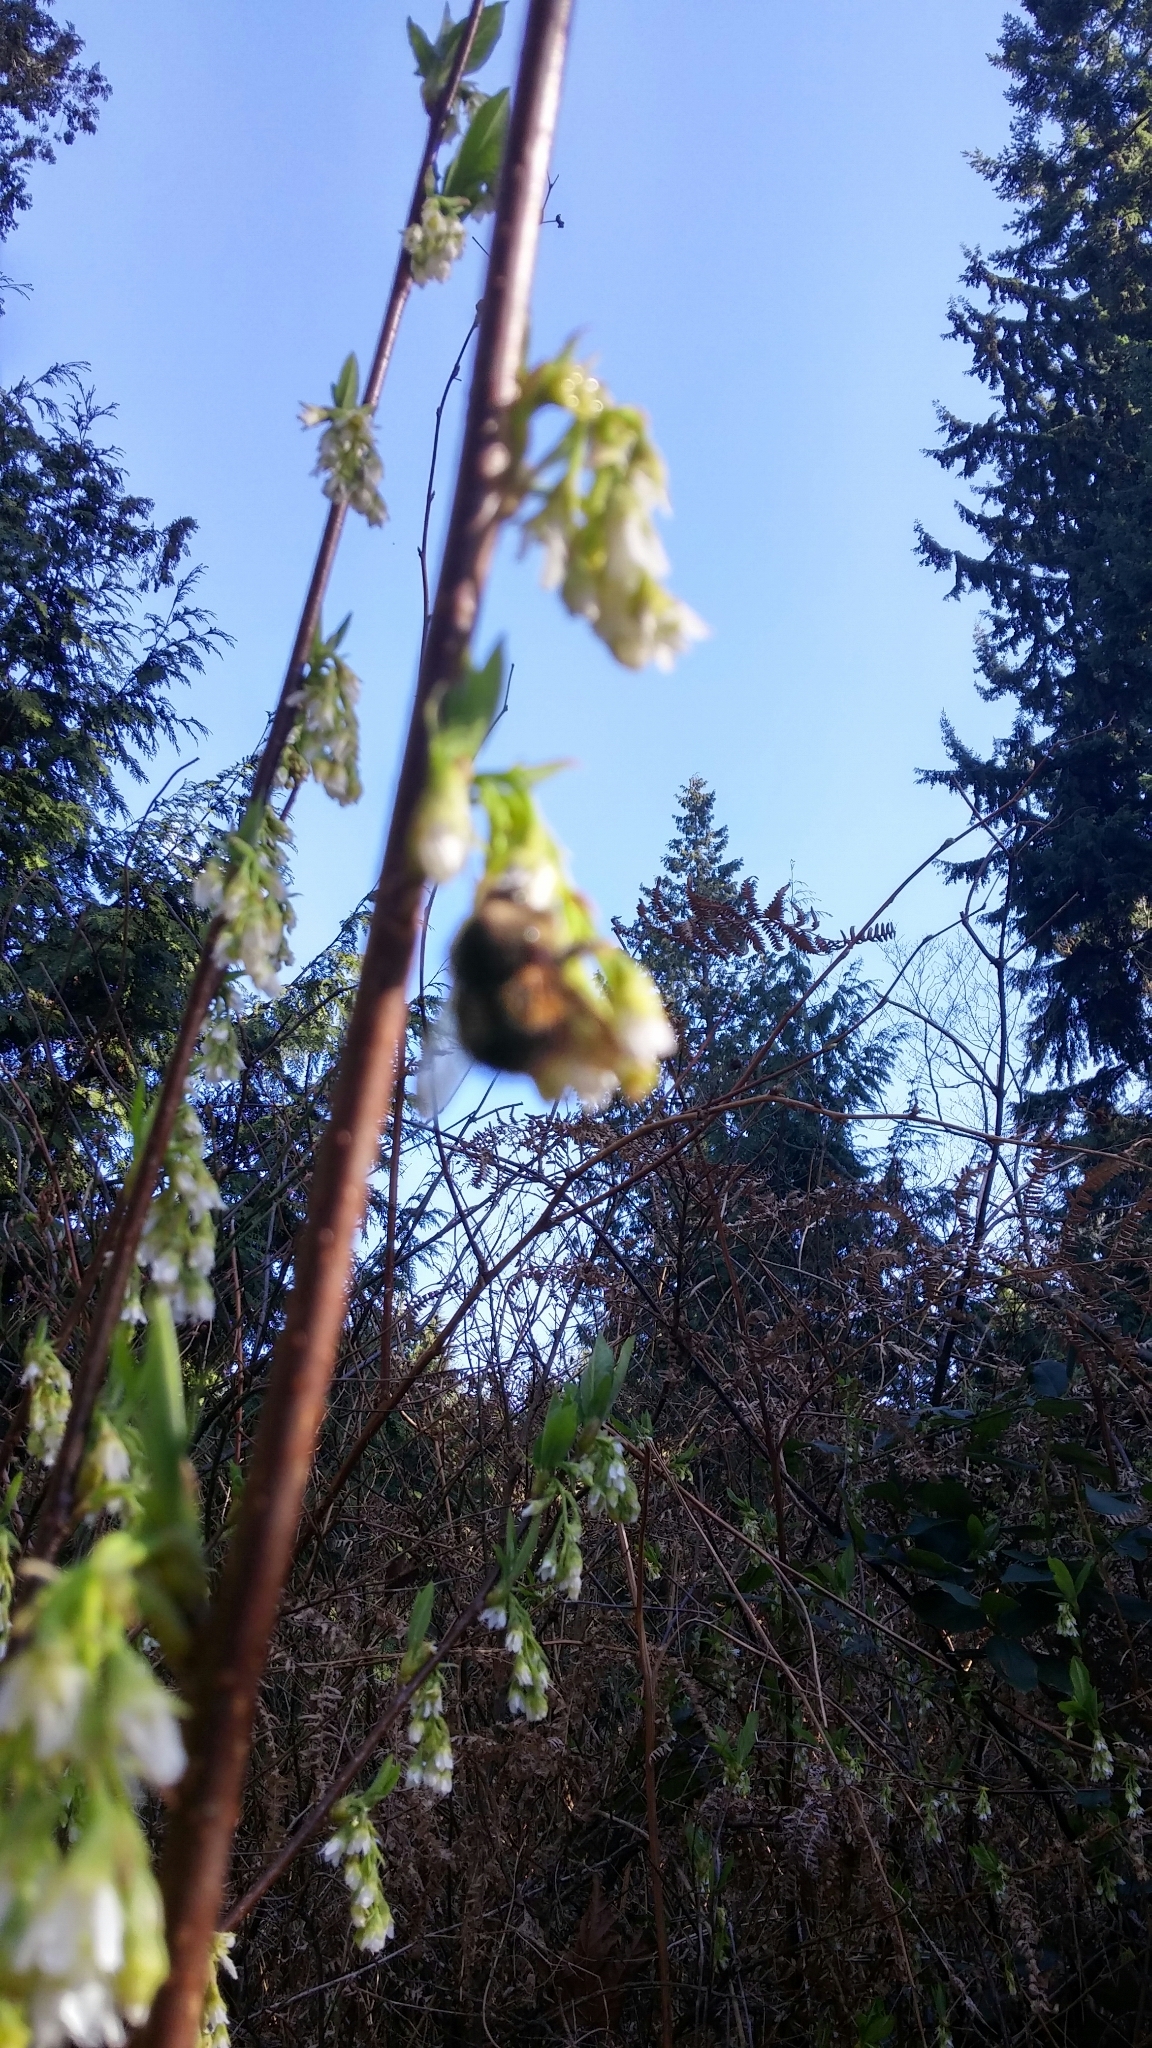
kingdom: Animalia
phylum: Arthropoda
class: Insecta
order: Hymenoptera
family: Apidae
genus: Bombus
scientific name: Bombus flavifrons
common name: Yellow head bumble bee
